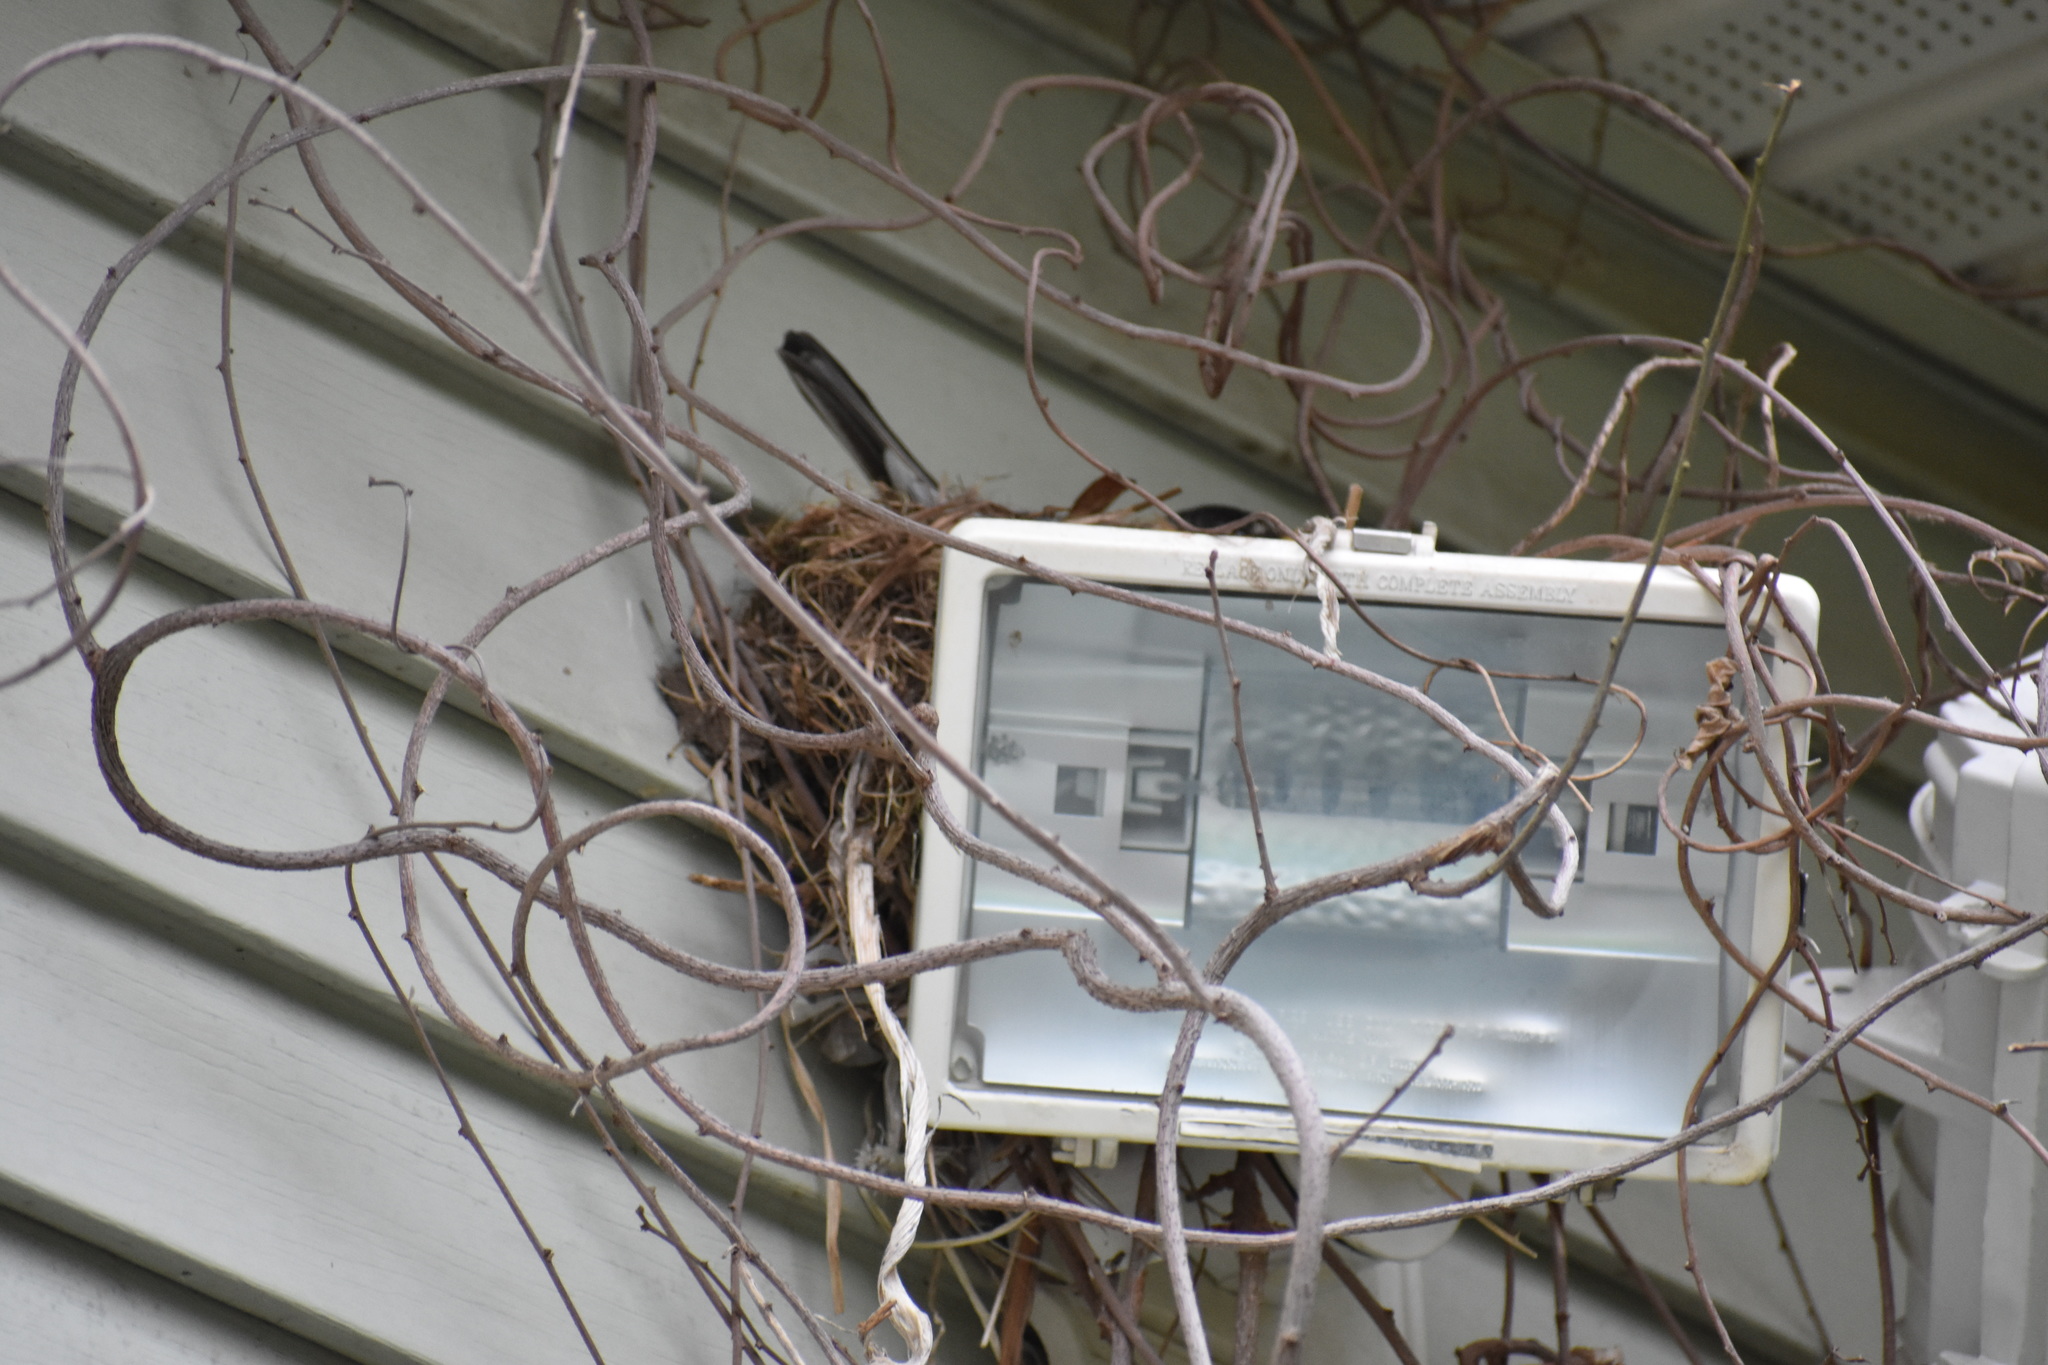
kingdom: Animalia
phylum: Chordata
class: Aves
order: Passeriformes
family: Turdidae
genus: Turdus
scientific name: Turdus migratorius
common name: American robin
